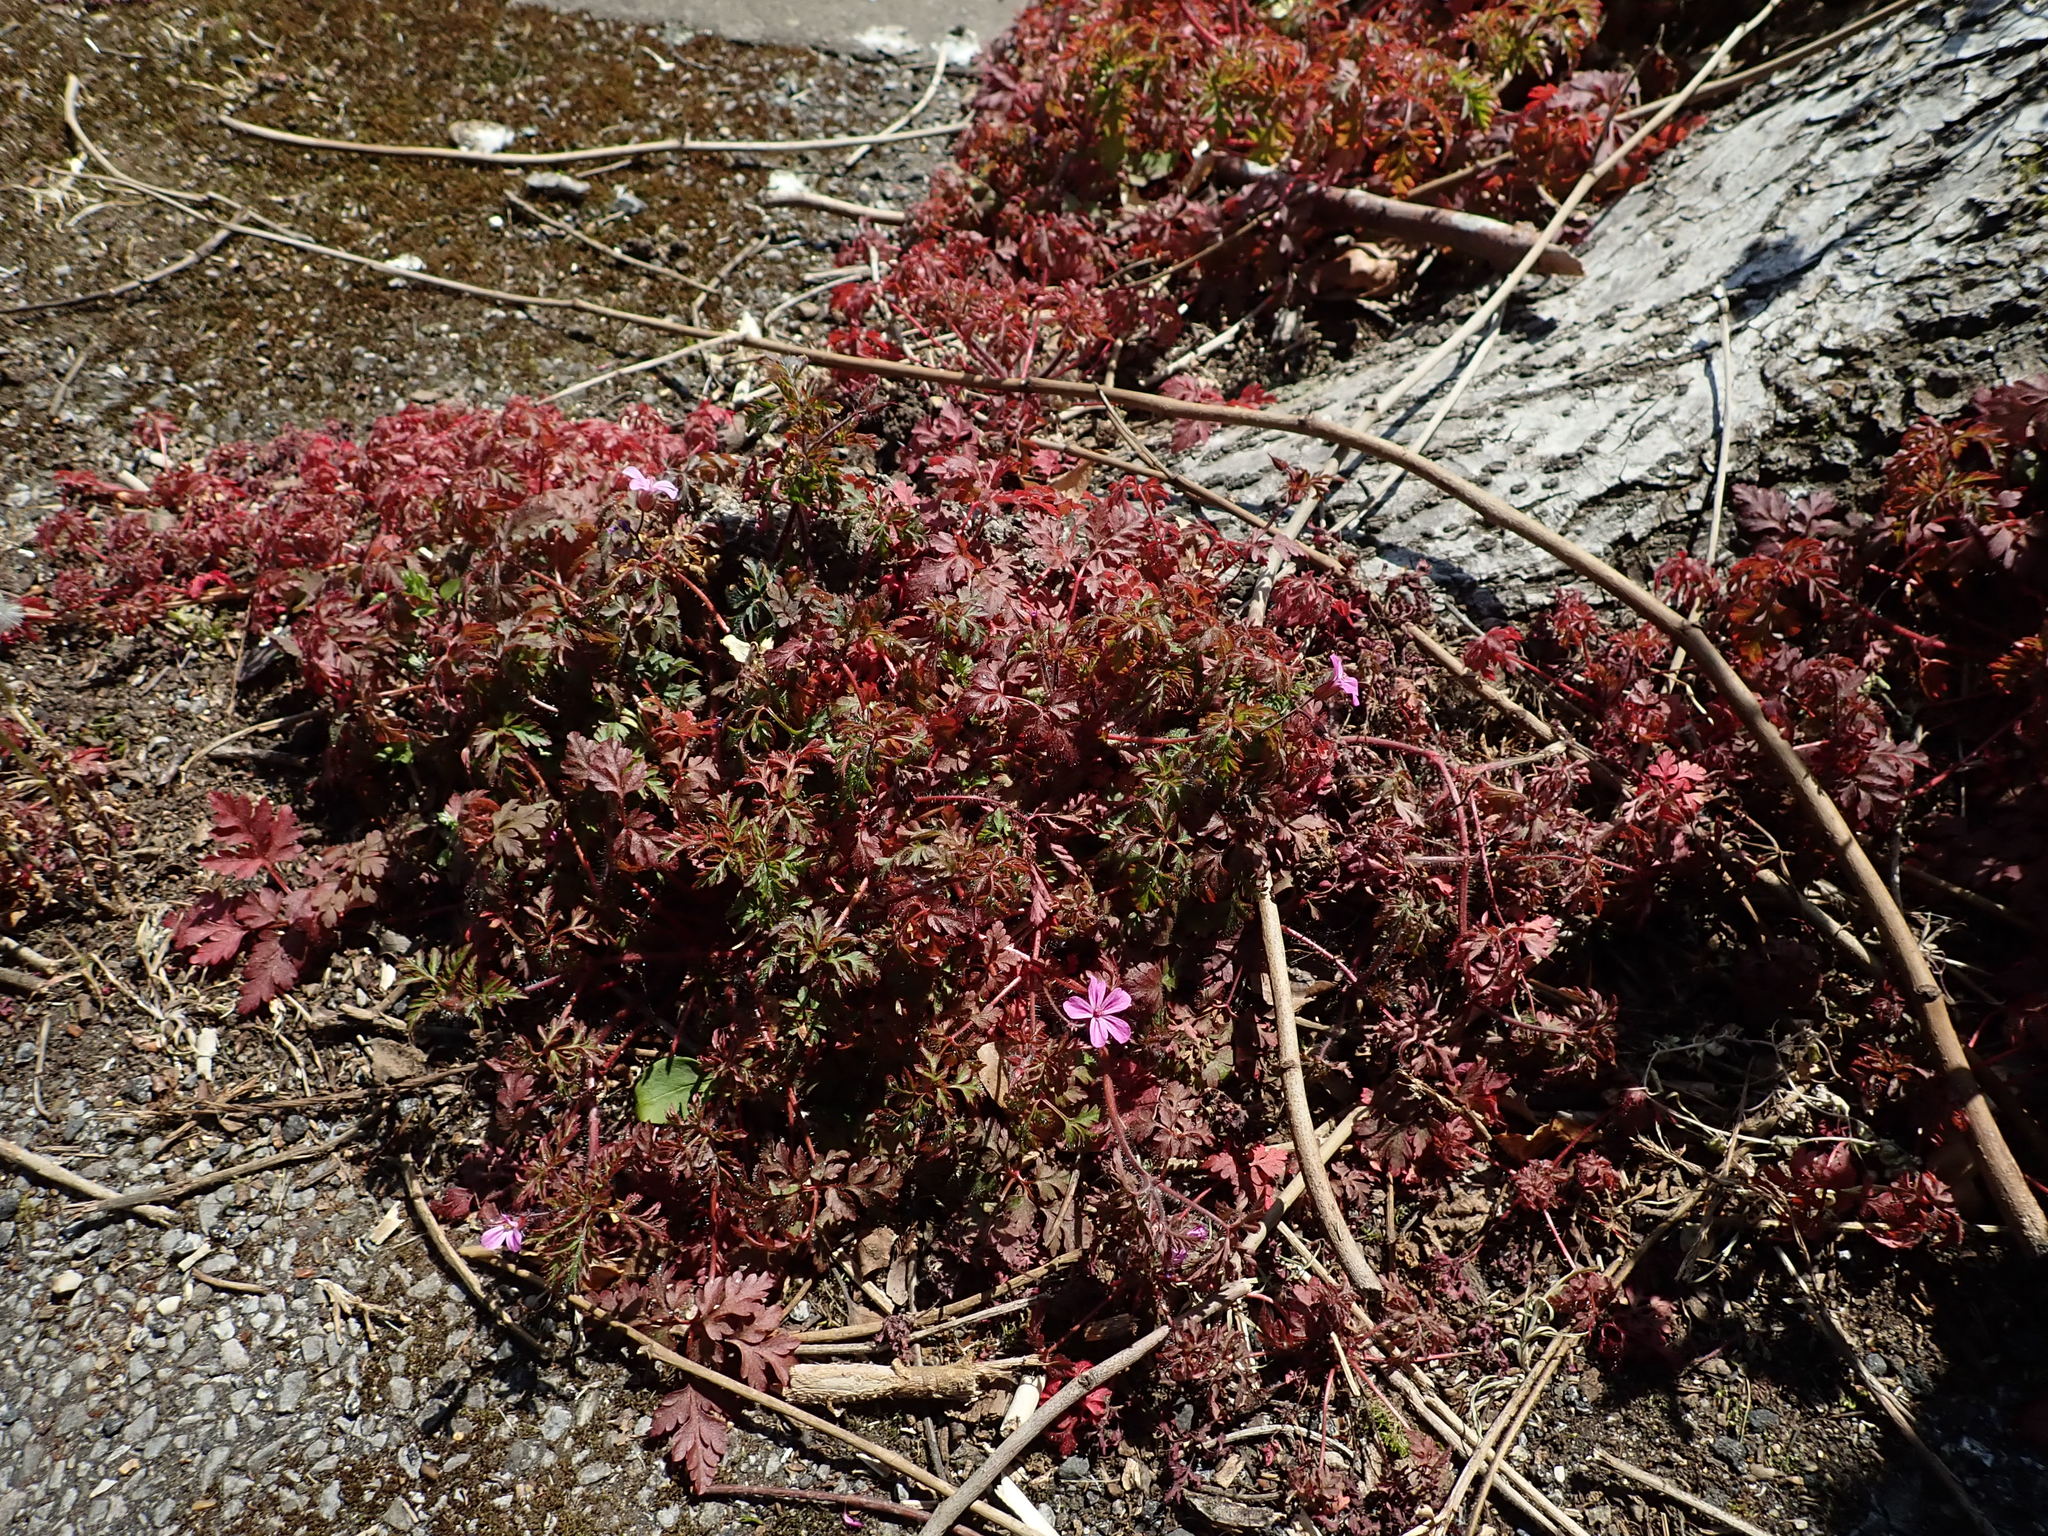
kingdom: Plantae
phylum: Tracheophyta
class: Magnoliopsida
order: Geraniales
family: Geraniaceae
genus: Geranium
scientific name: Geranium robertianum
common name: Herb-robert
